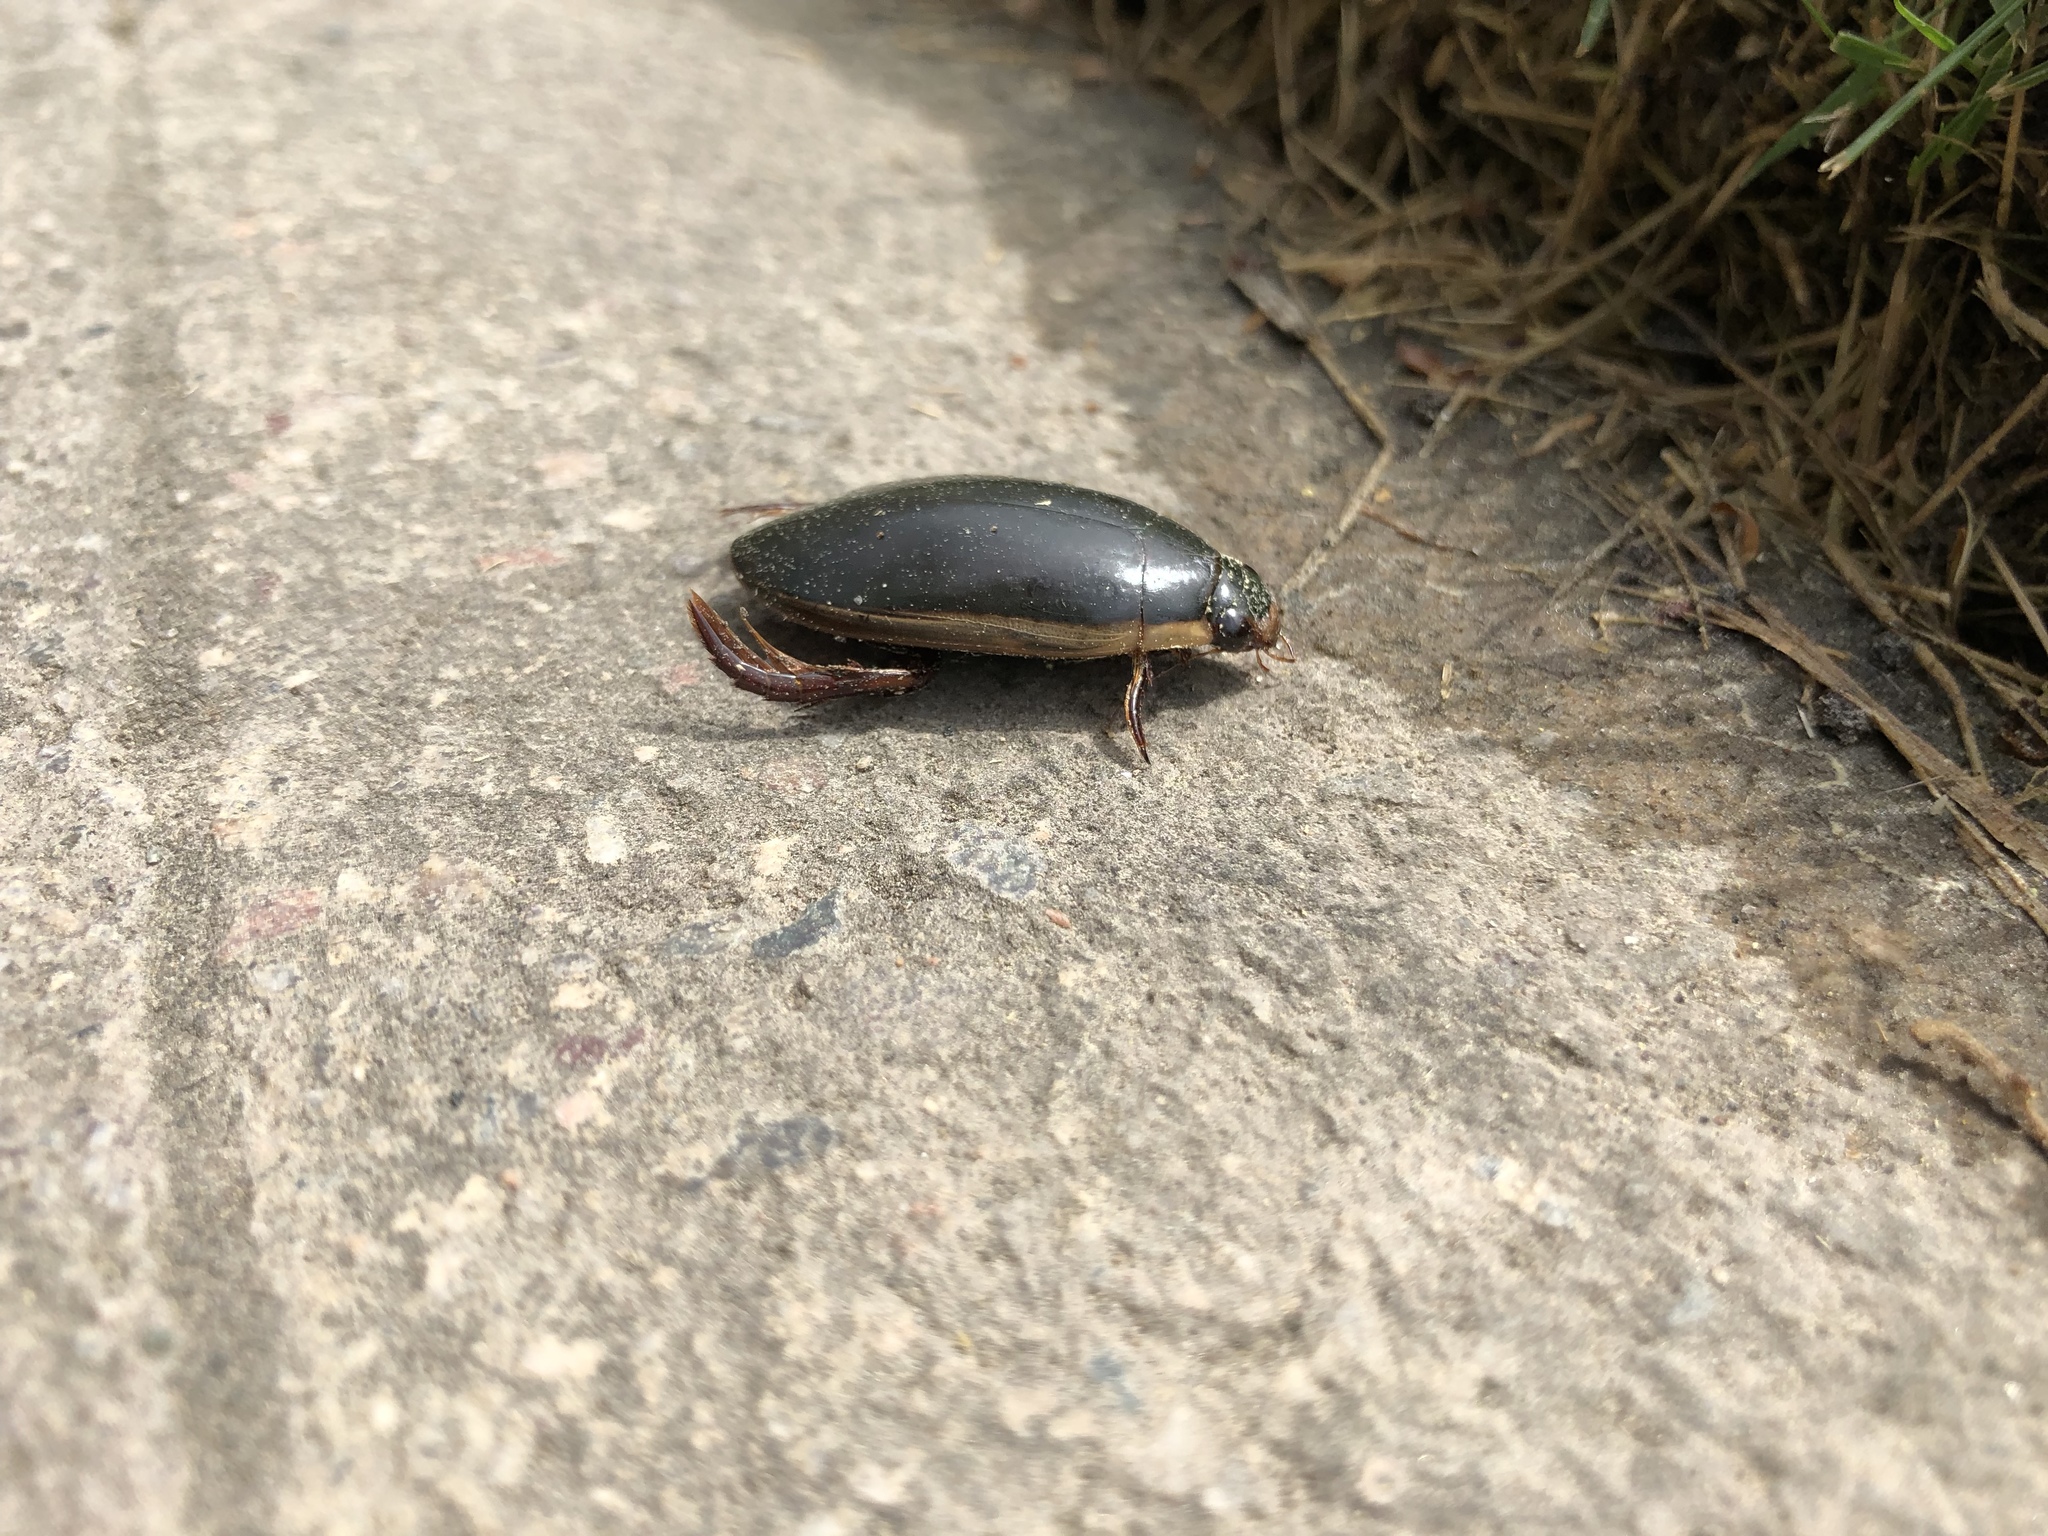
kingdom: Animalia
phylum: Arthropoda
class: Insecta
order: Coleoptera
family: Dytiscidae
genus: Cybister
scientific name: Cybister fimbriolatus
